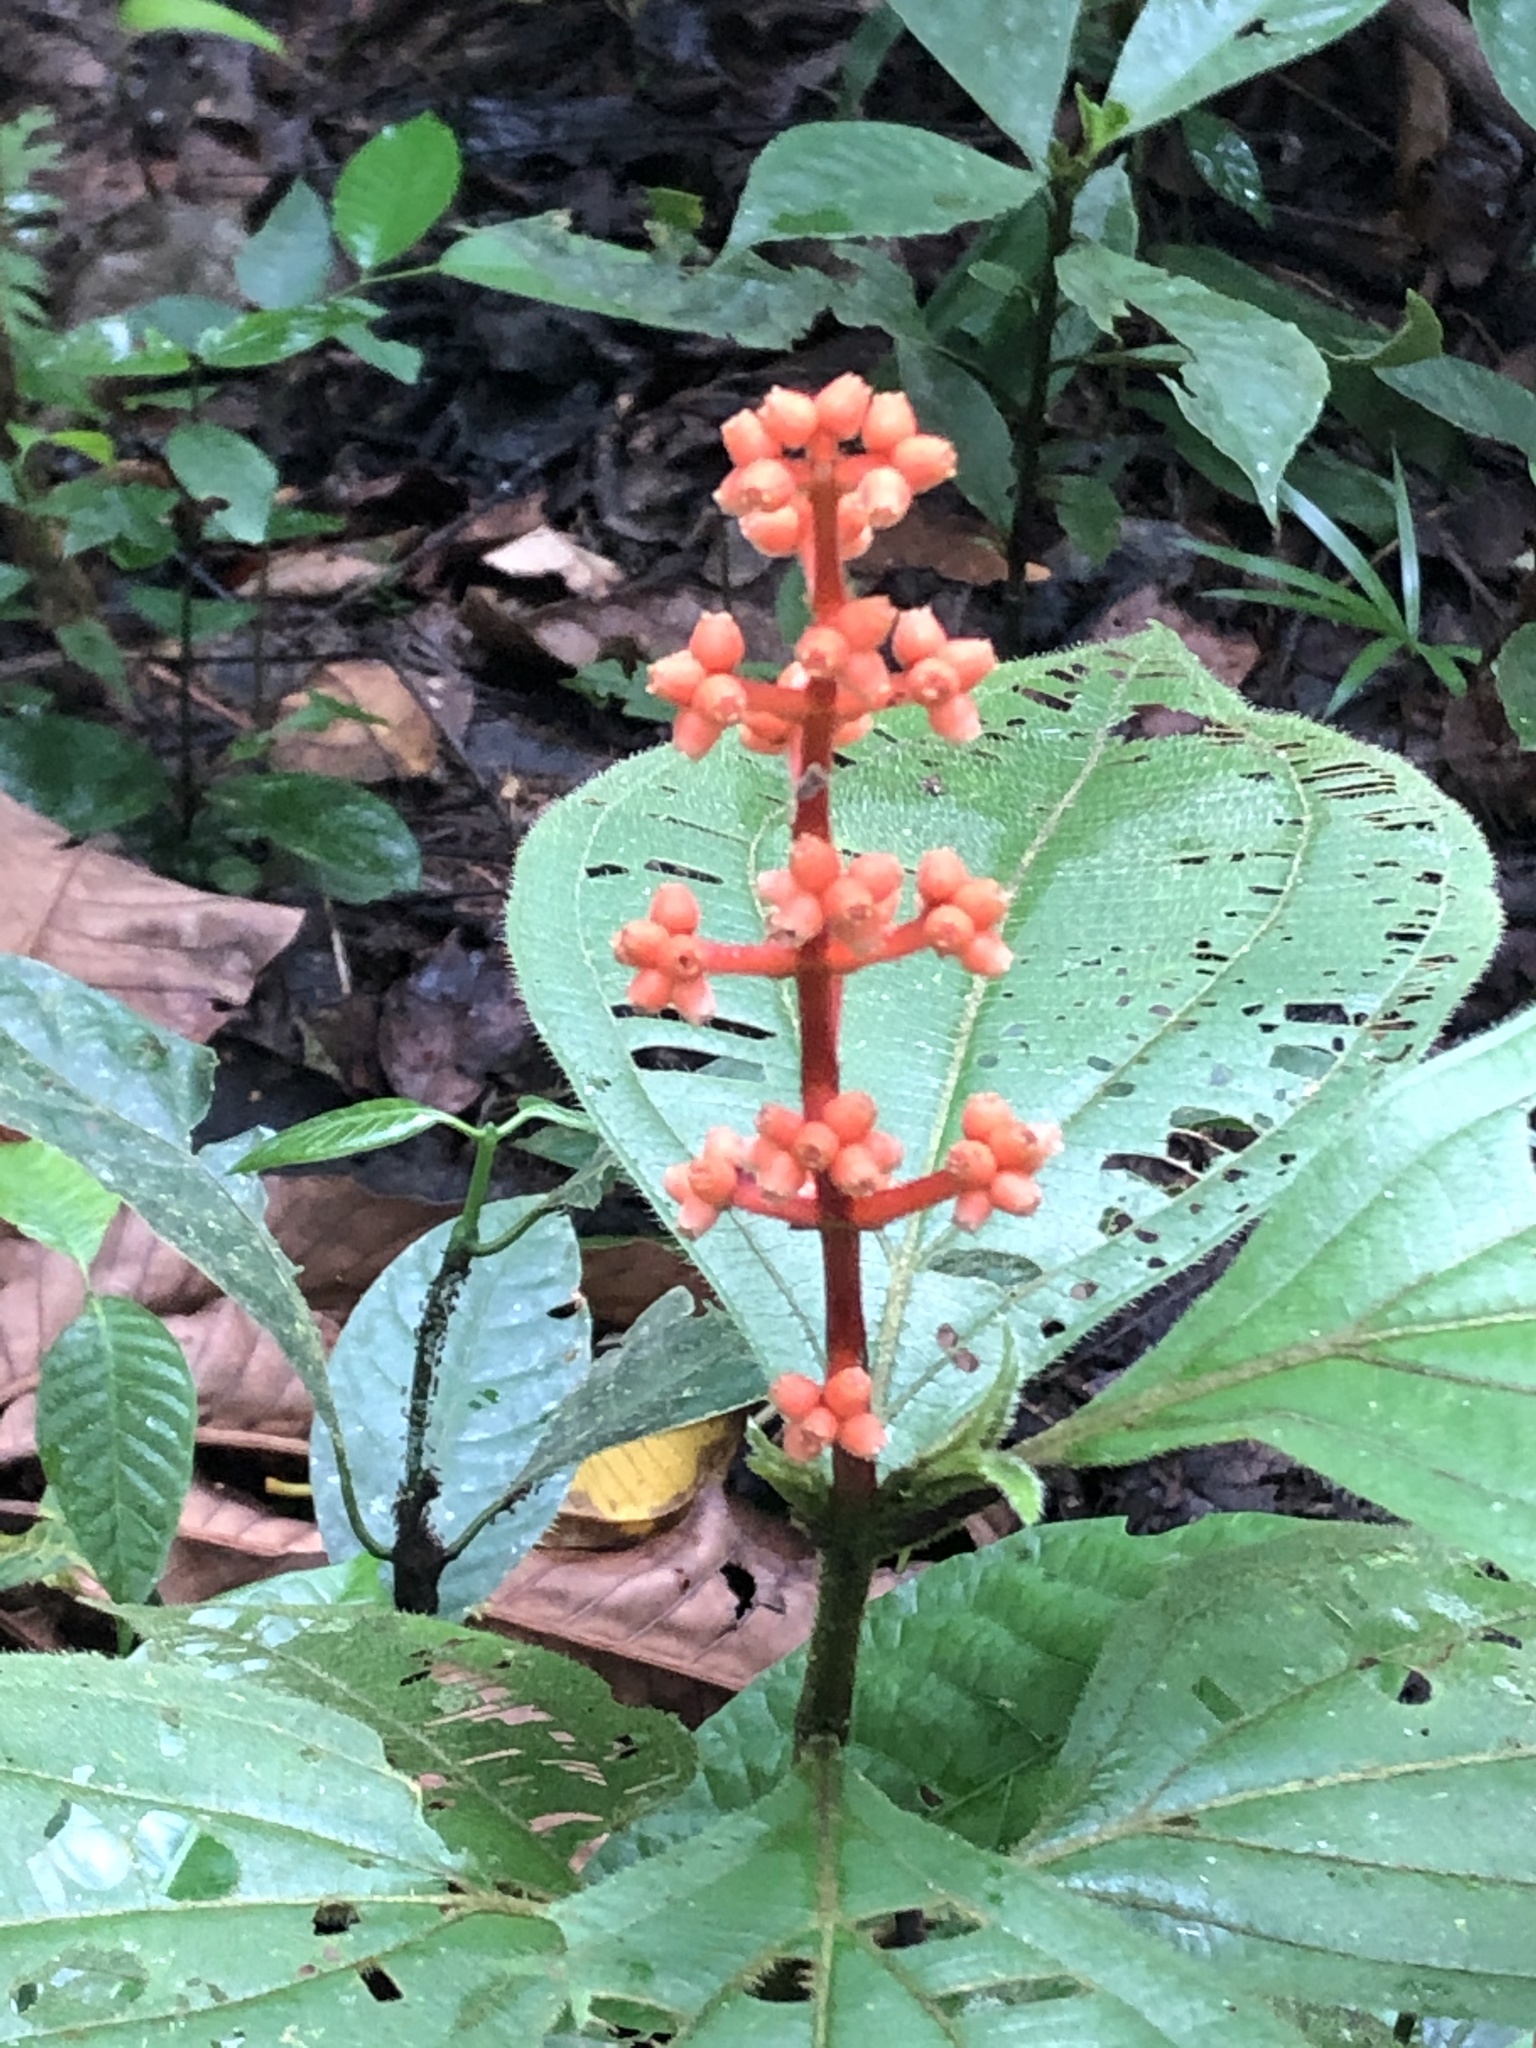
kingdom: Plantae
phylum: Tracheophyta
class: Magnoliopsida
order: Myrtales
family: Melastomataceae
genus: Miconia
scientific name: Miconia nervosa
